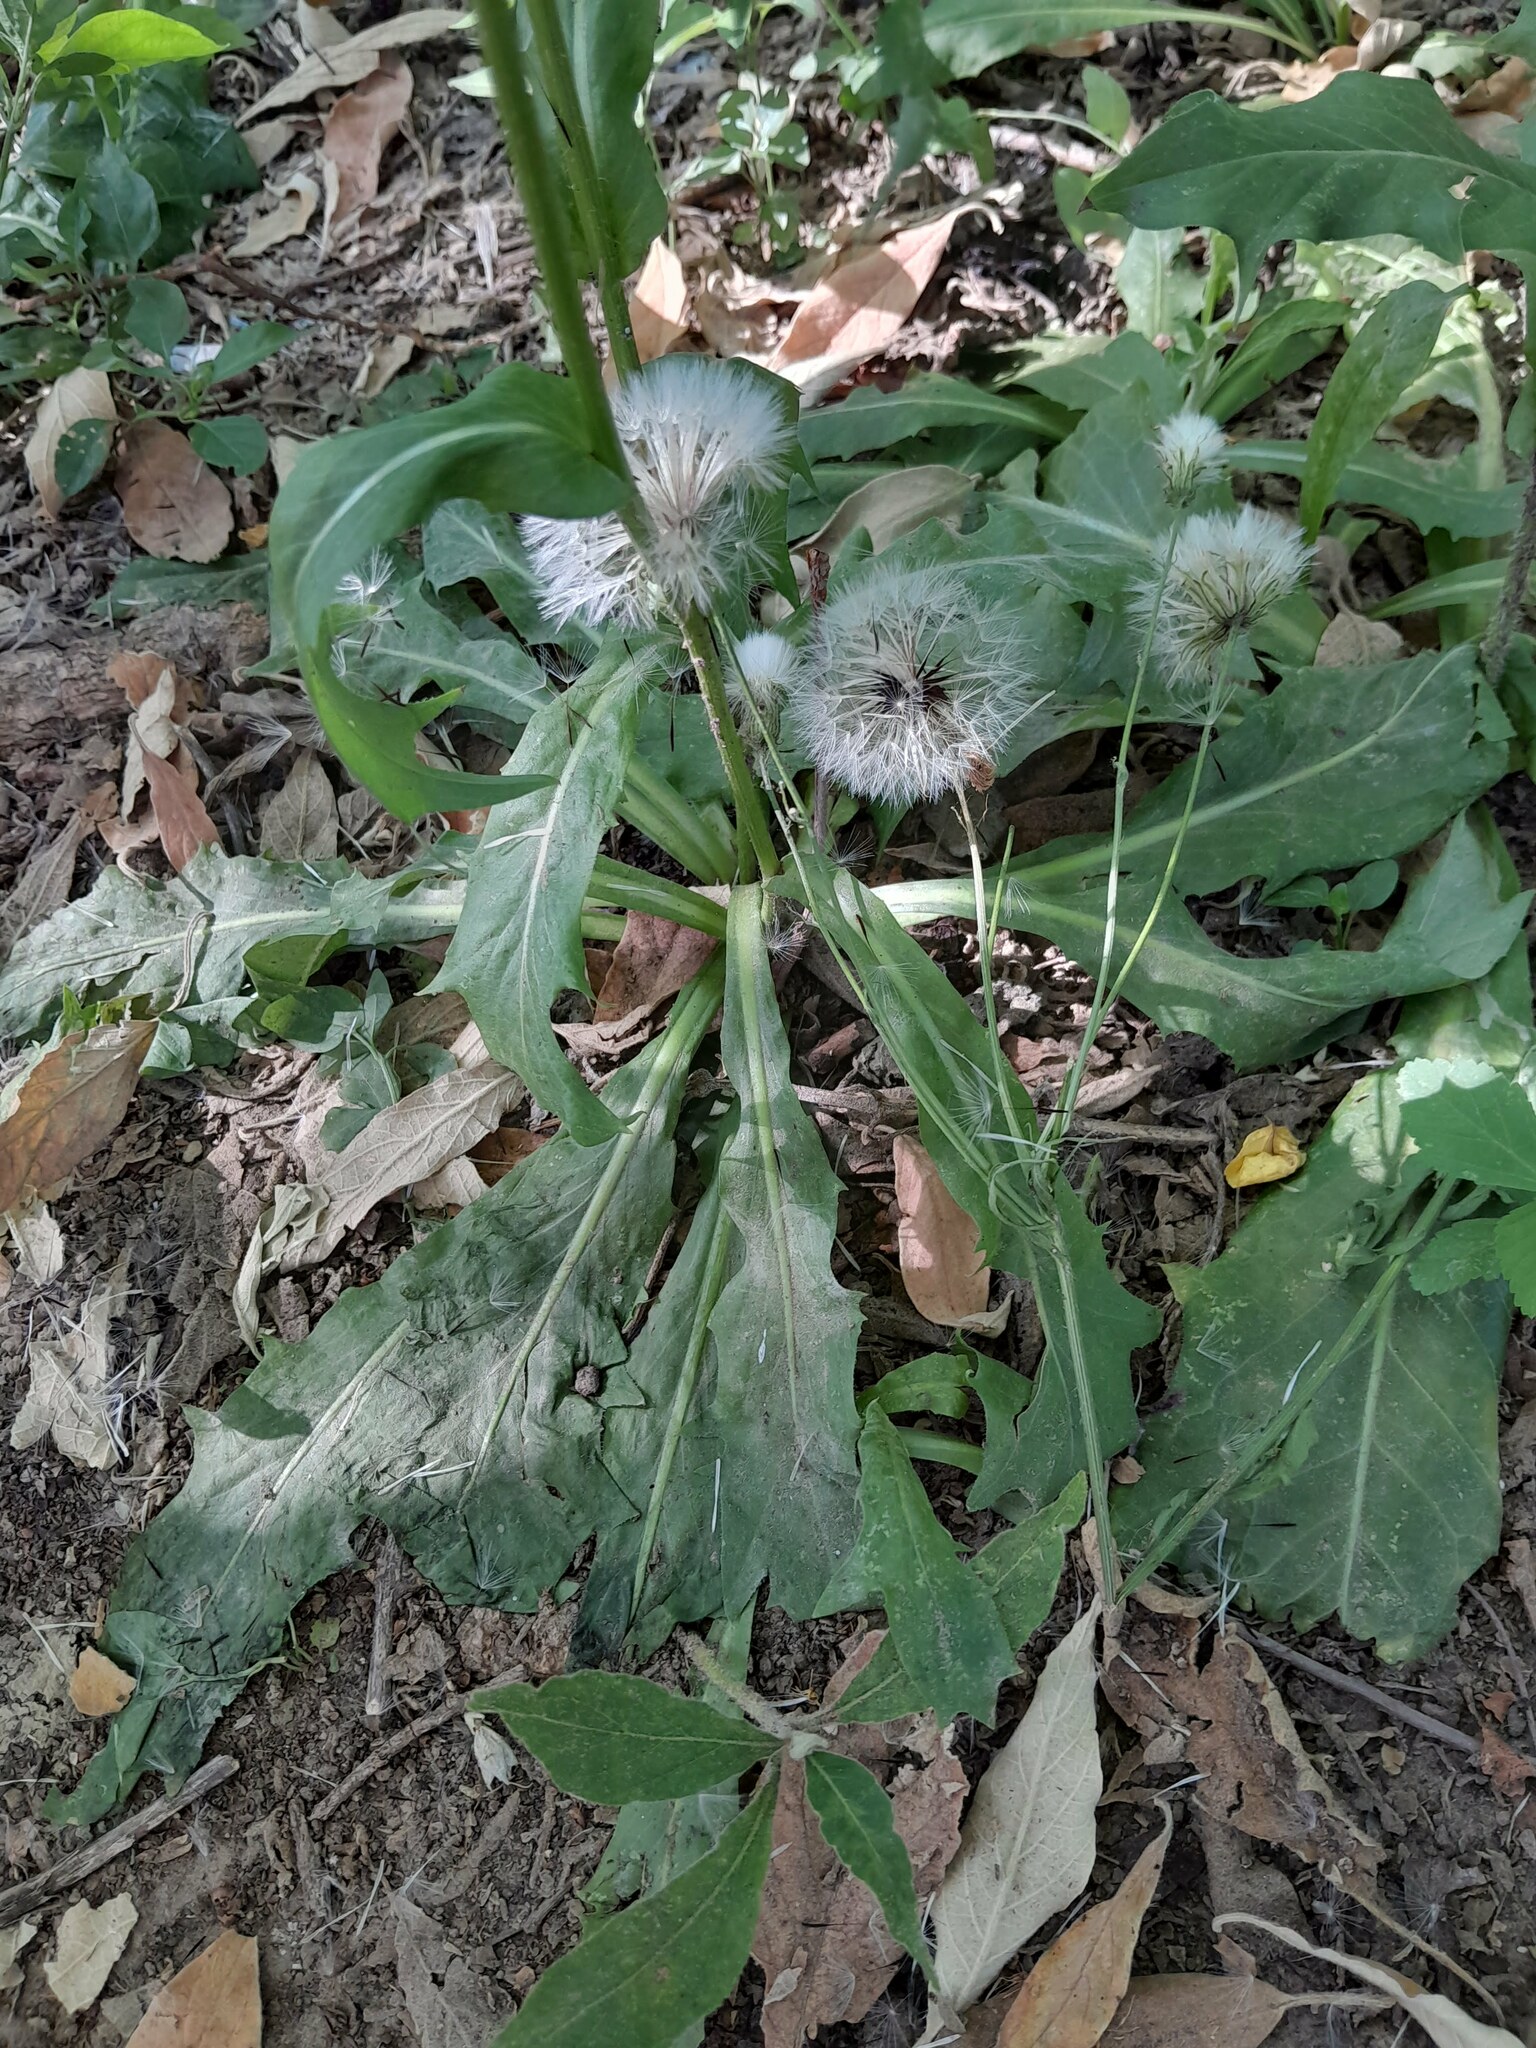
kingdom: Plantae
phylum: Tracheophyta
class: Magnoliopsida
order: Asterales
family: Asteraceae
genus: Hypochaeris
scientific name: Hypochaeris chillensis
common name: Brazilian cat's ear
